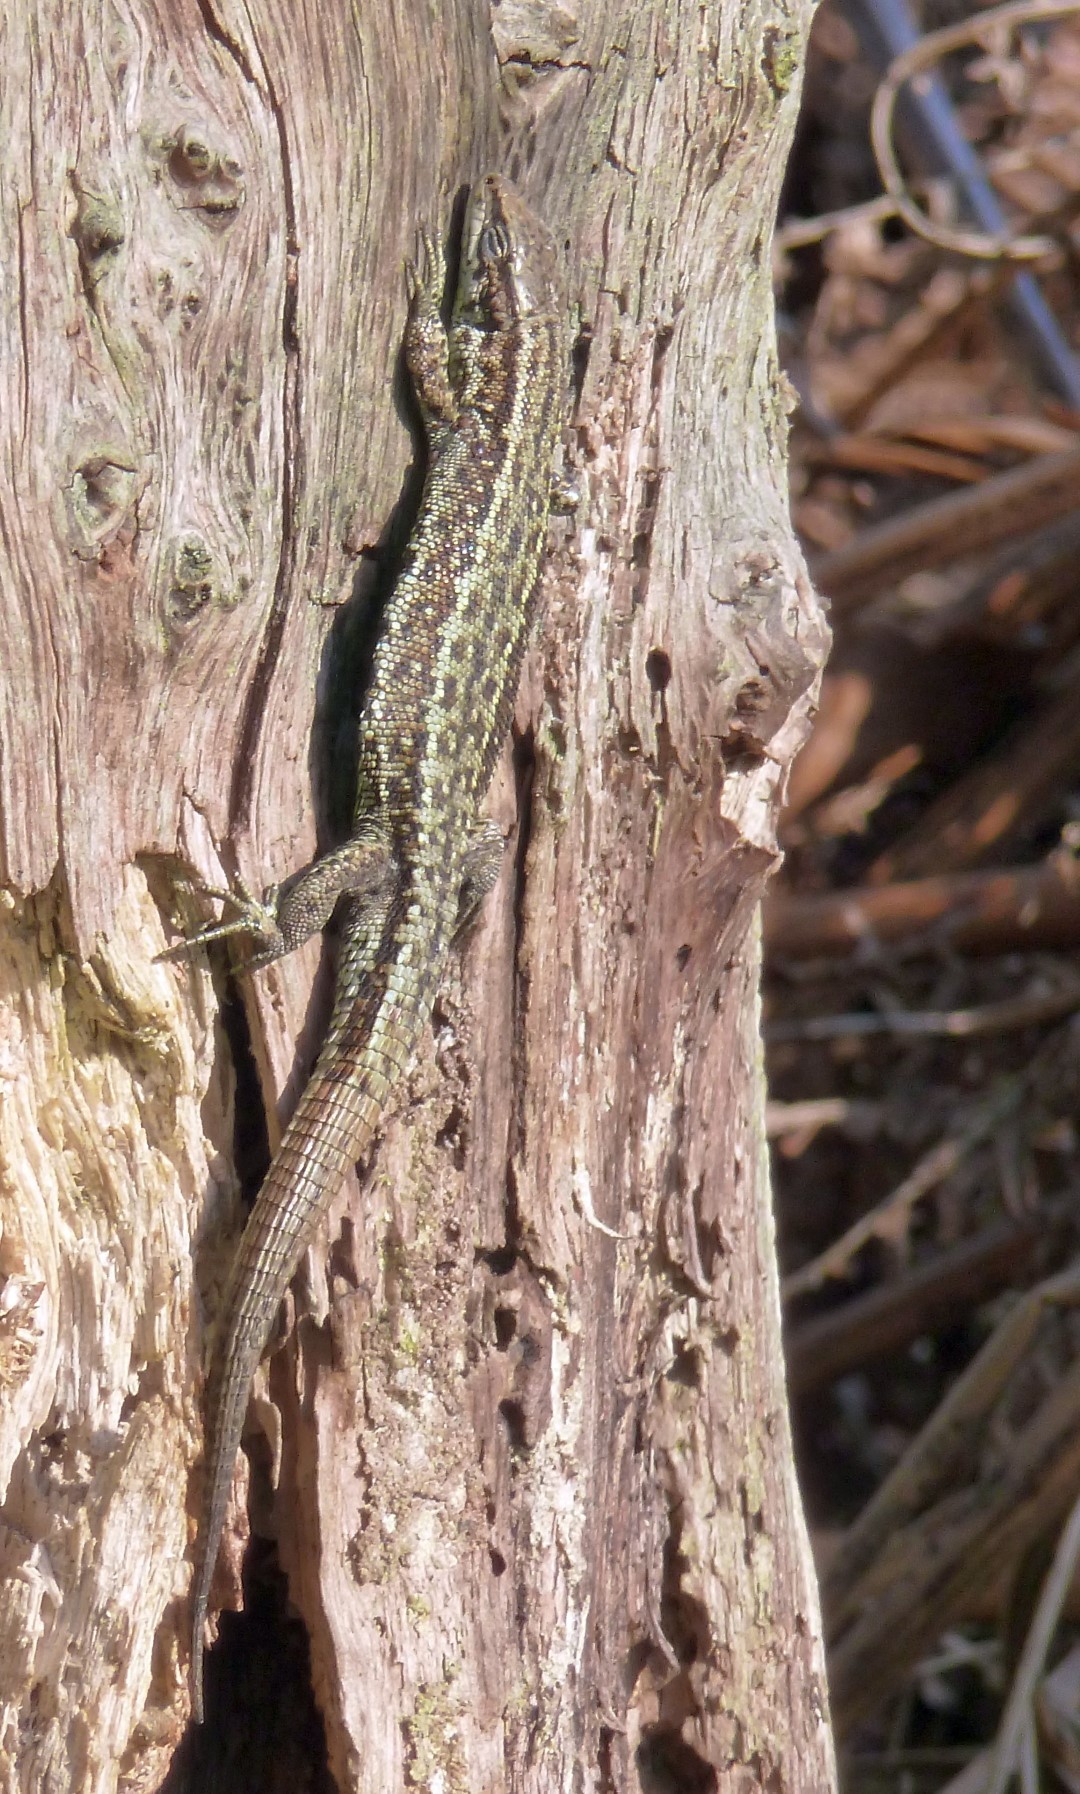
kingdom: Animalia
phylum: Chordata
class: Squamata
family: Lacertidae
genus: Zootoca
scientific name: Zootoca vivipara
